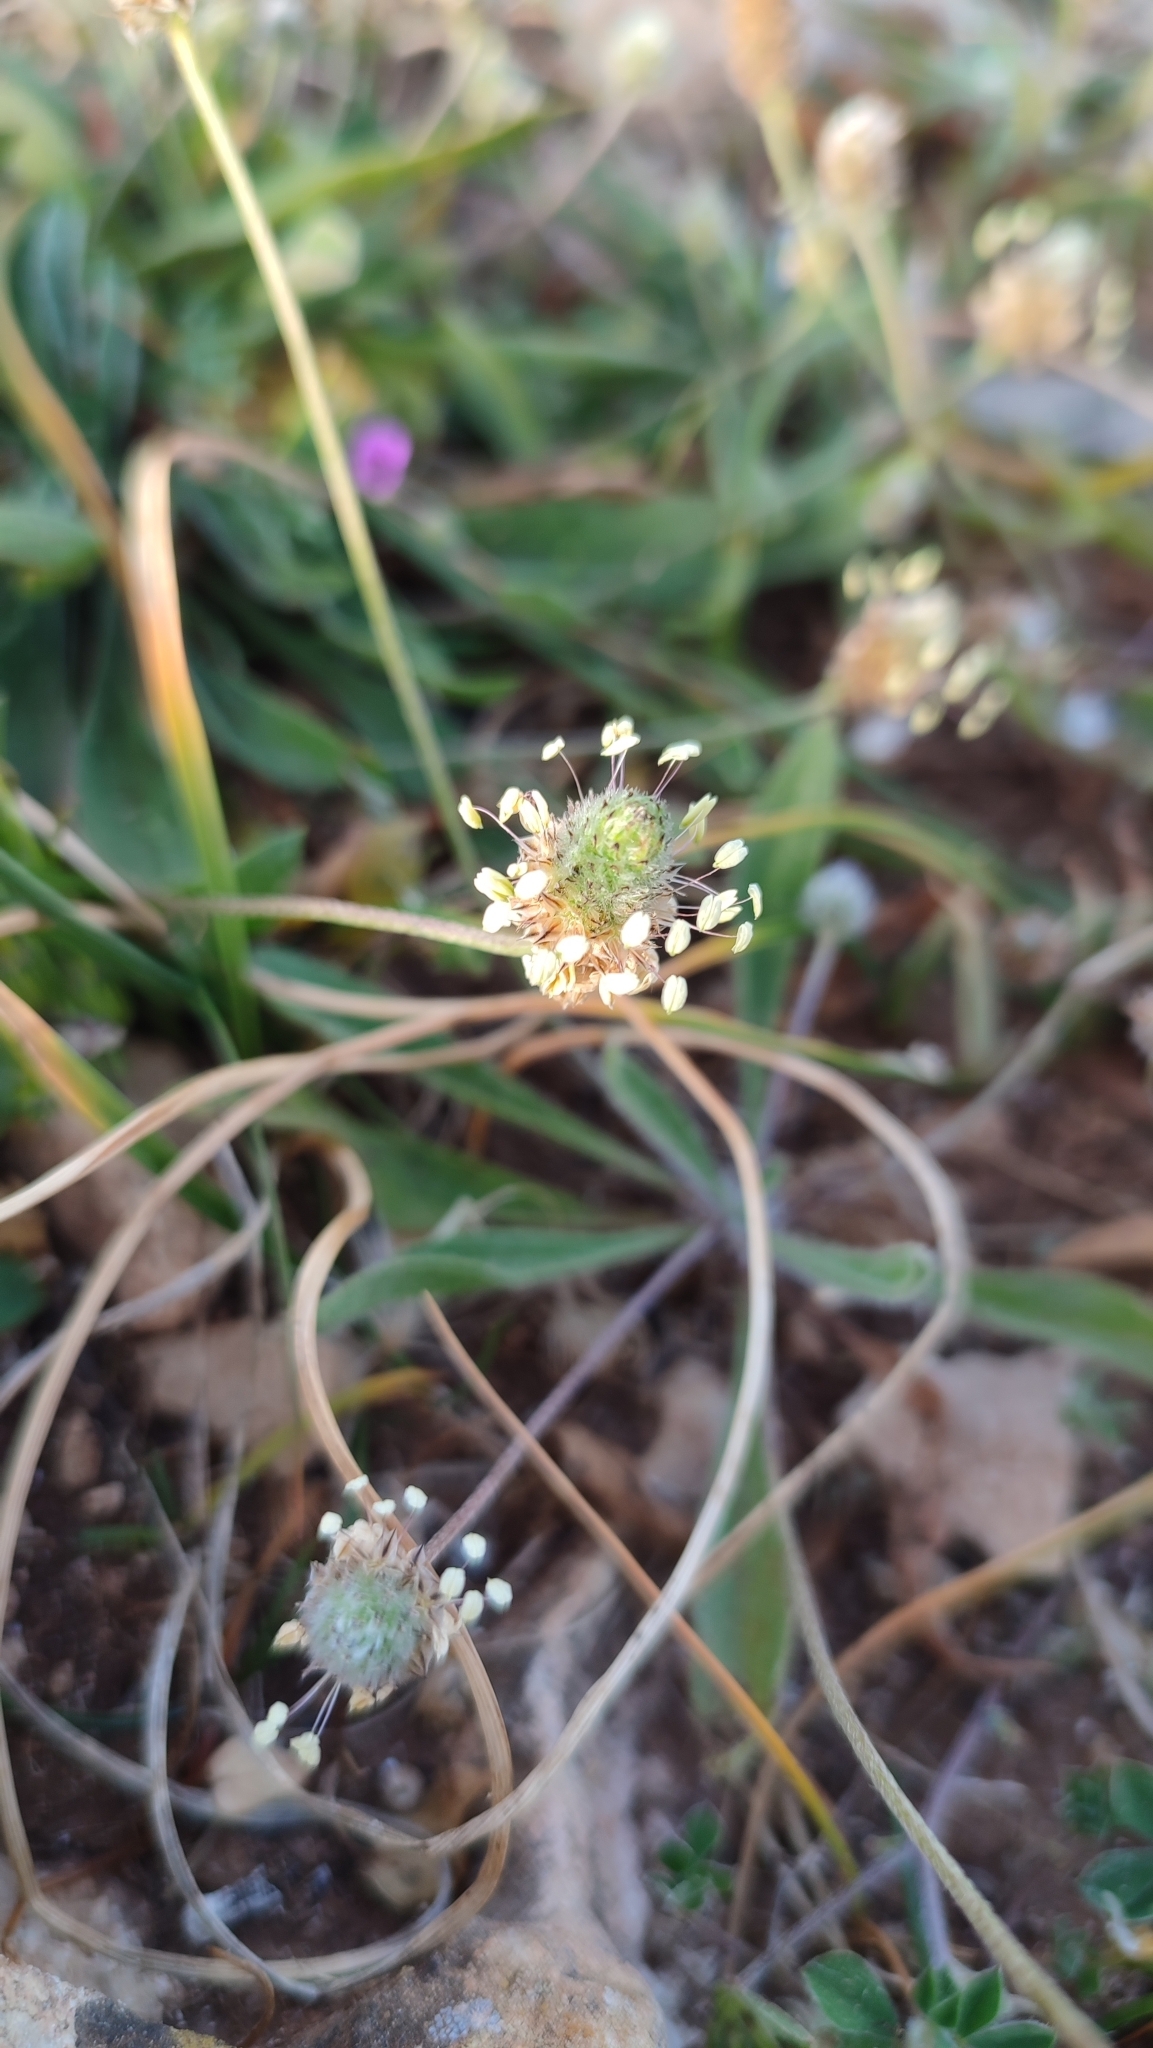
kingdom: Plantae
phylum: Tracheophyta
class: Magnoliopsida
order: Lamiales
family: Plantaginaceae
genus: Plantago
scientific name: Plantago lagopus
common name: Hare-foot plantain
